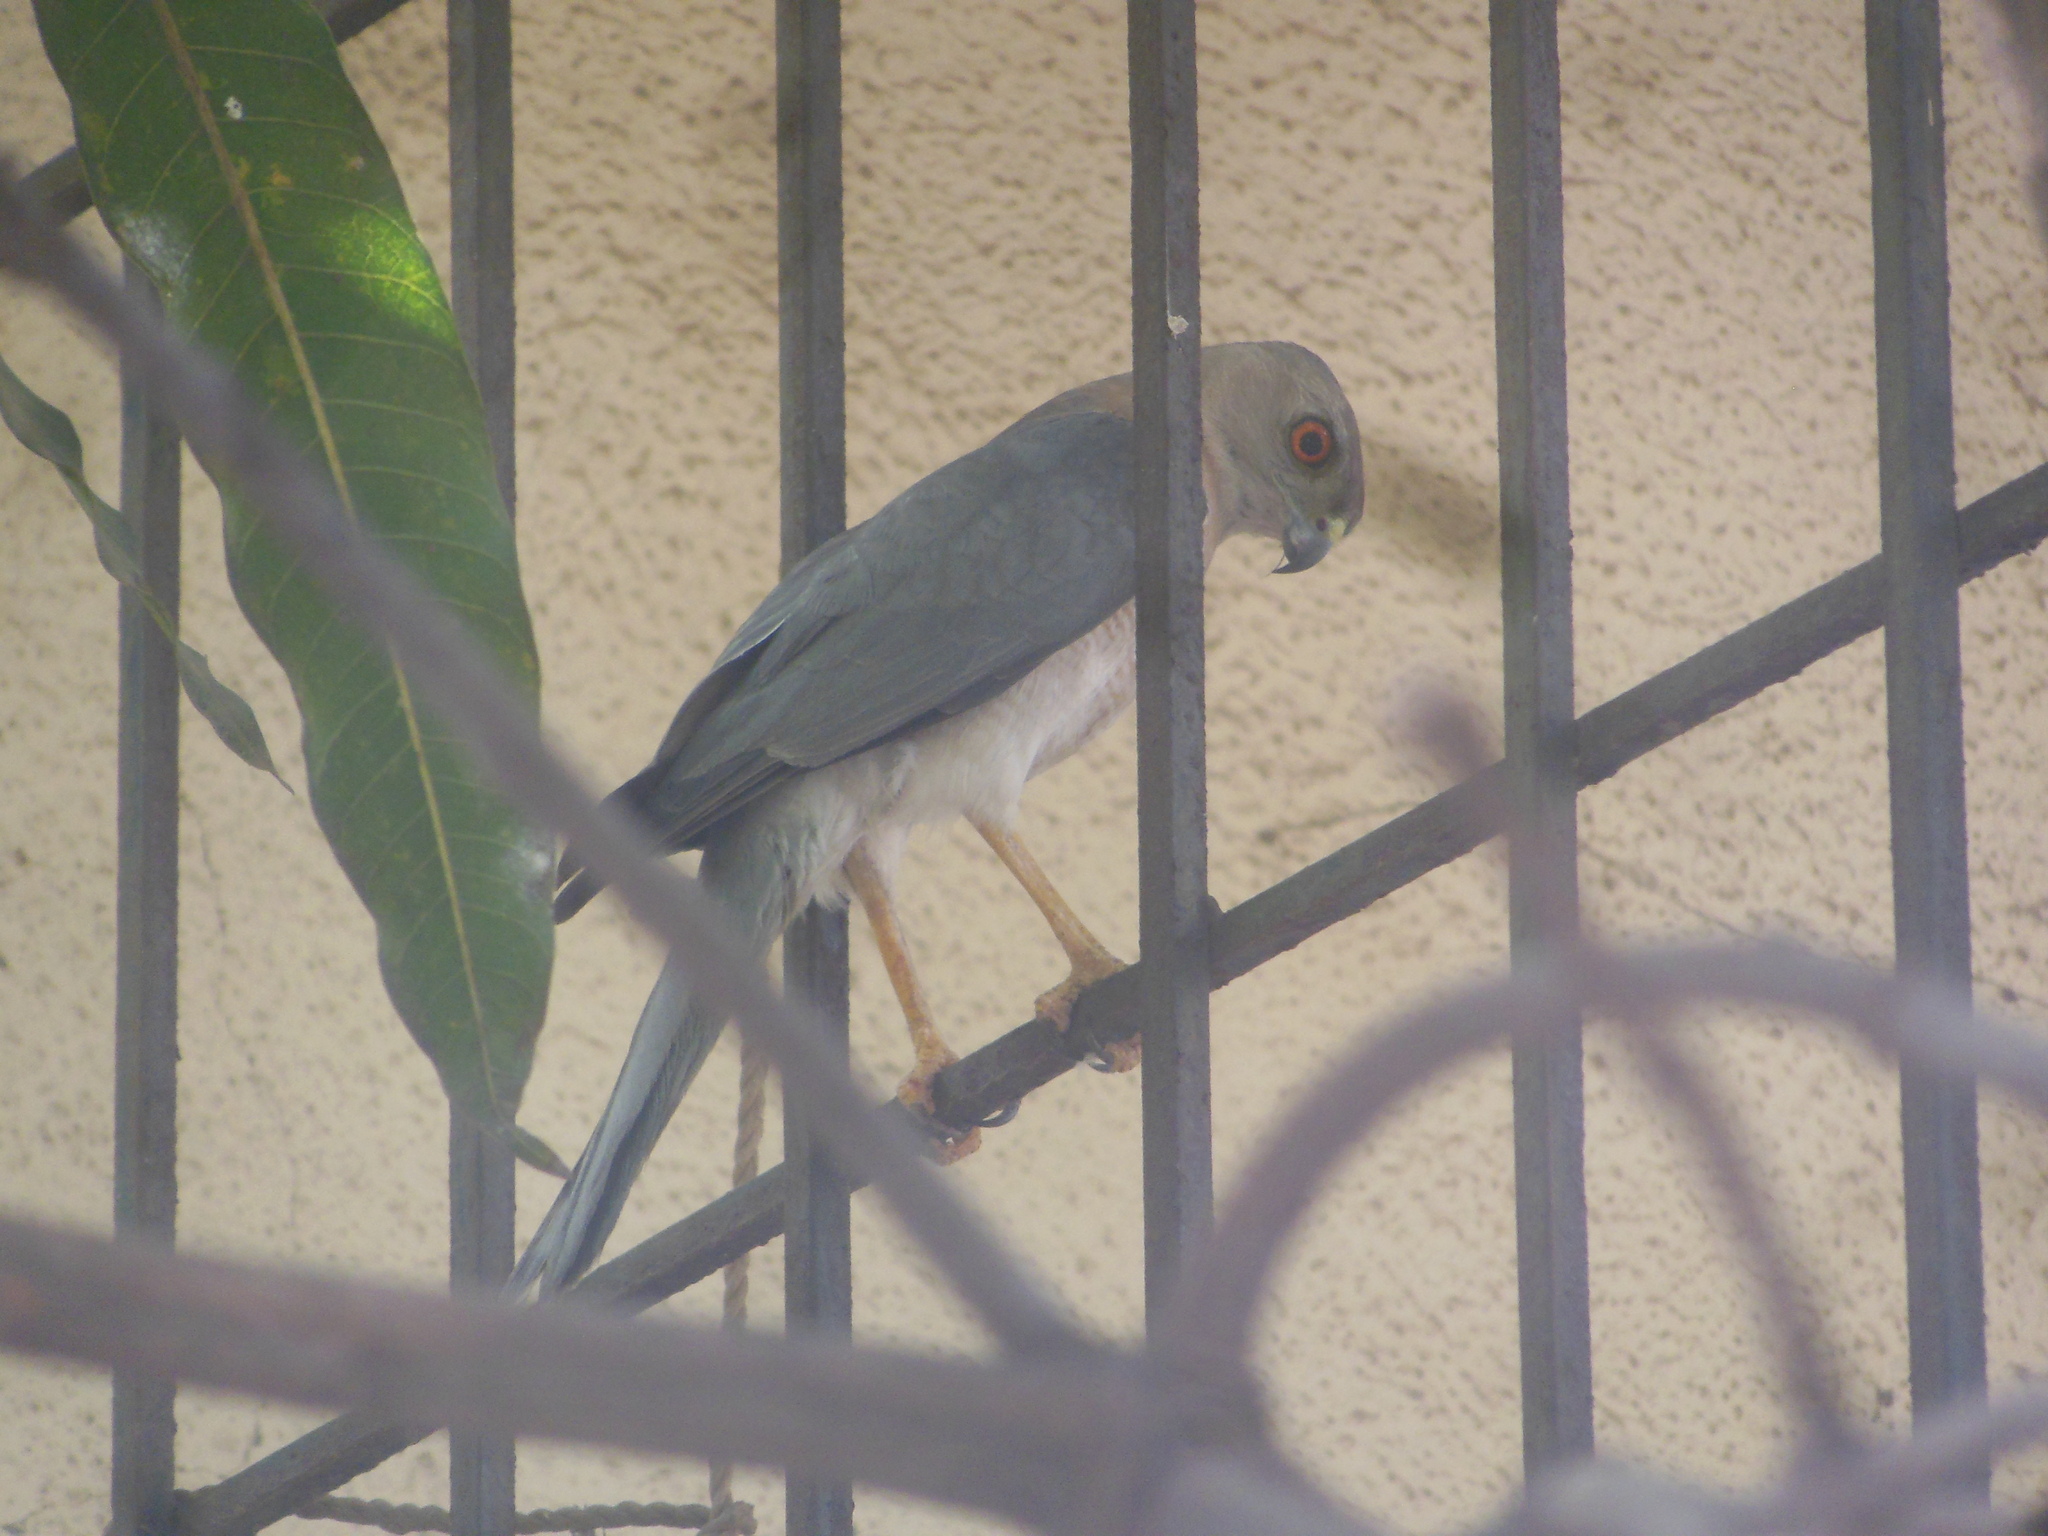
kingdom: Animalia
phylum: Chordata
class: Aves
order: Accipitriformes
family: Accipitridae
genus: Accipiter
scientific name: Accipiter badius
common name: Shikra
